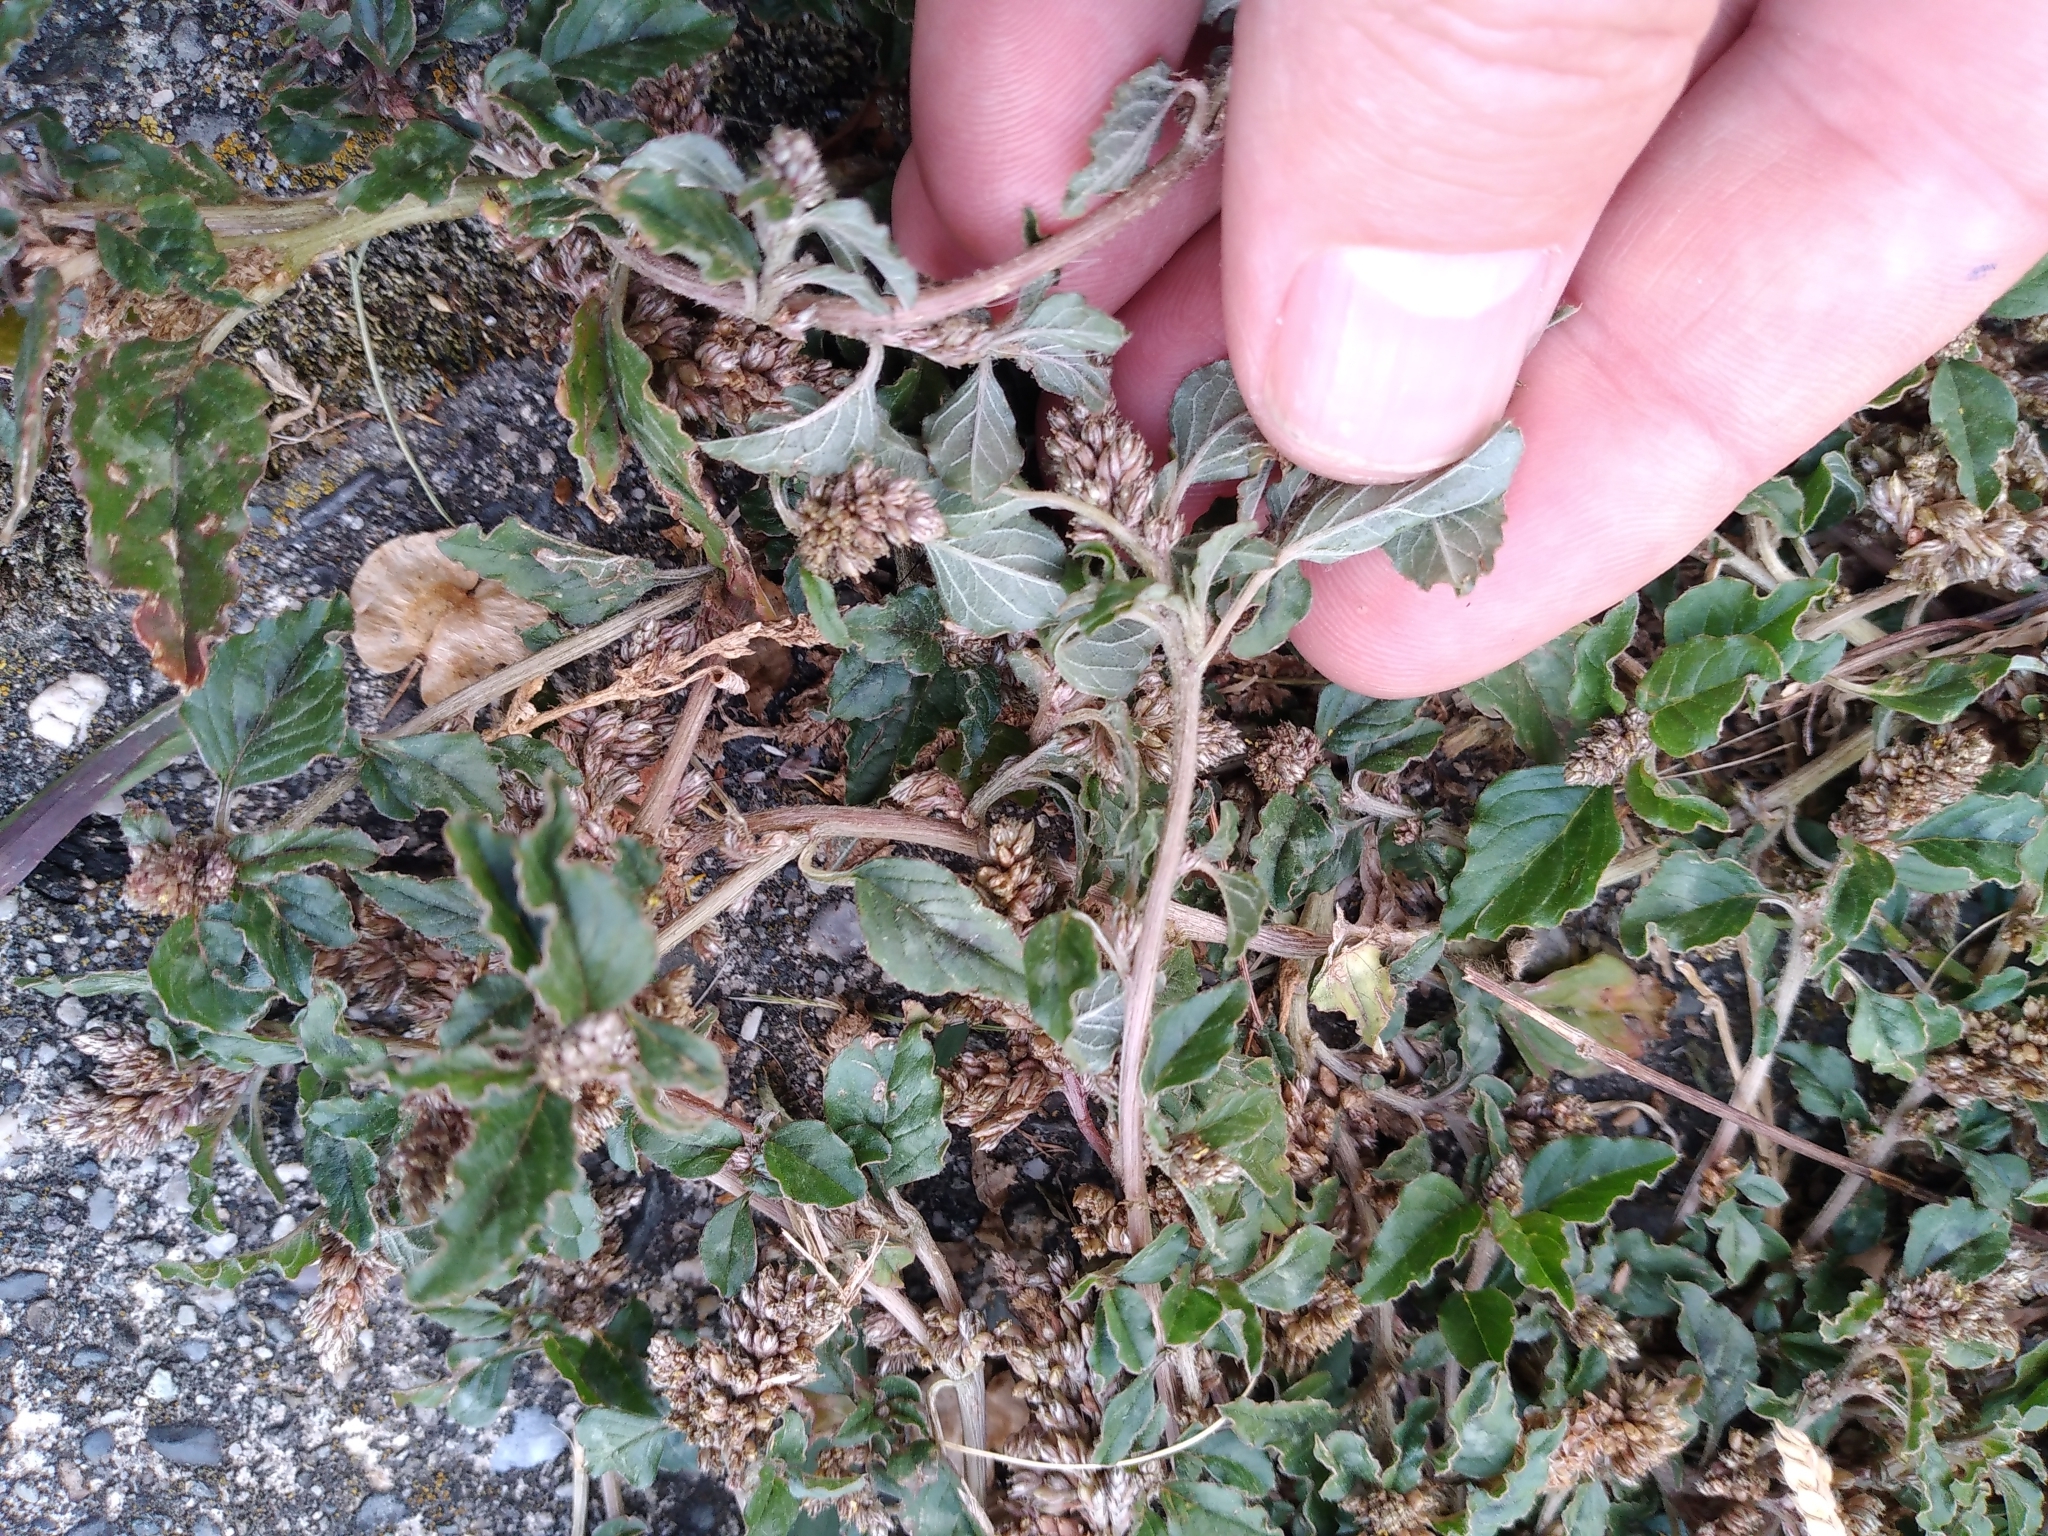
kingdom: Plantae
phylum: Tracheophyta
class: Magnoliopsida
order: Caryophyllales
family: Amaranthaceae
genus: Amaranthus
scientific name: Amaranthus deflexus
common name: Perennial pigweed
